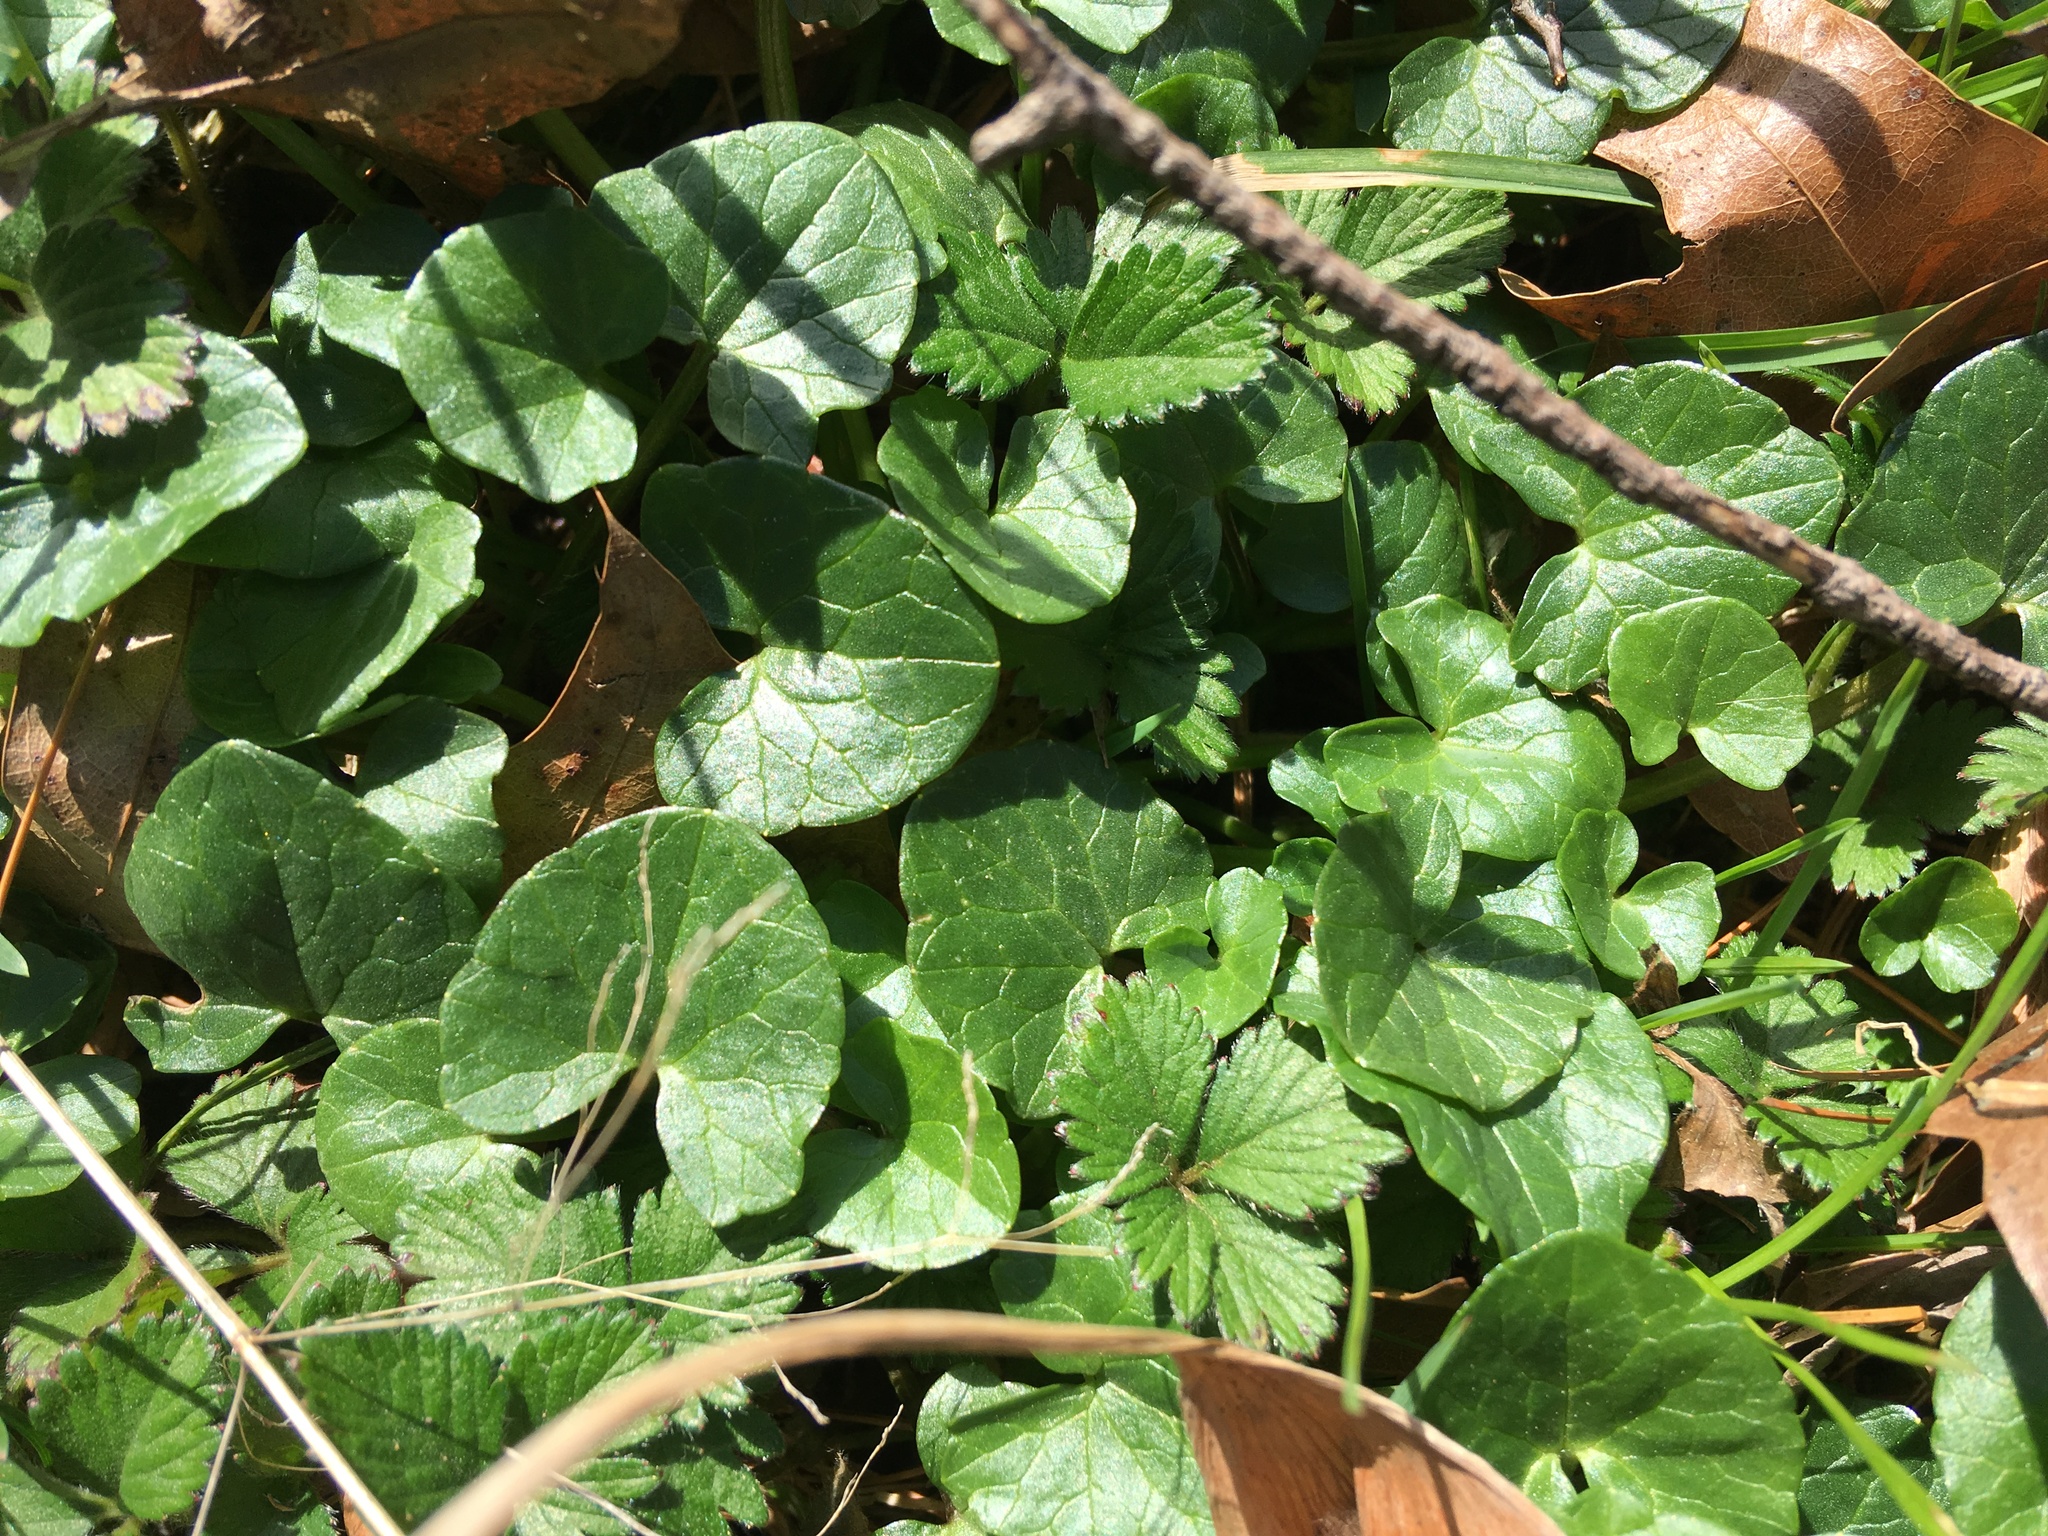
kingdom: Plantae
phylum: Tracheophyta
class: Magnoliopsida
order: Ranunculales
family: Ranunculaceae
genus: Ficaria
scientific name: Ficaria verna
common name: Lesser celandine
